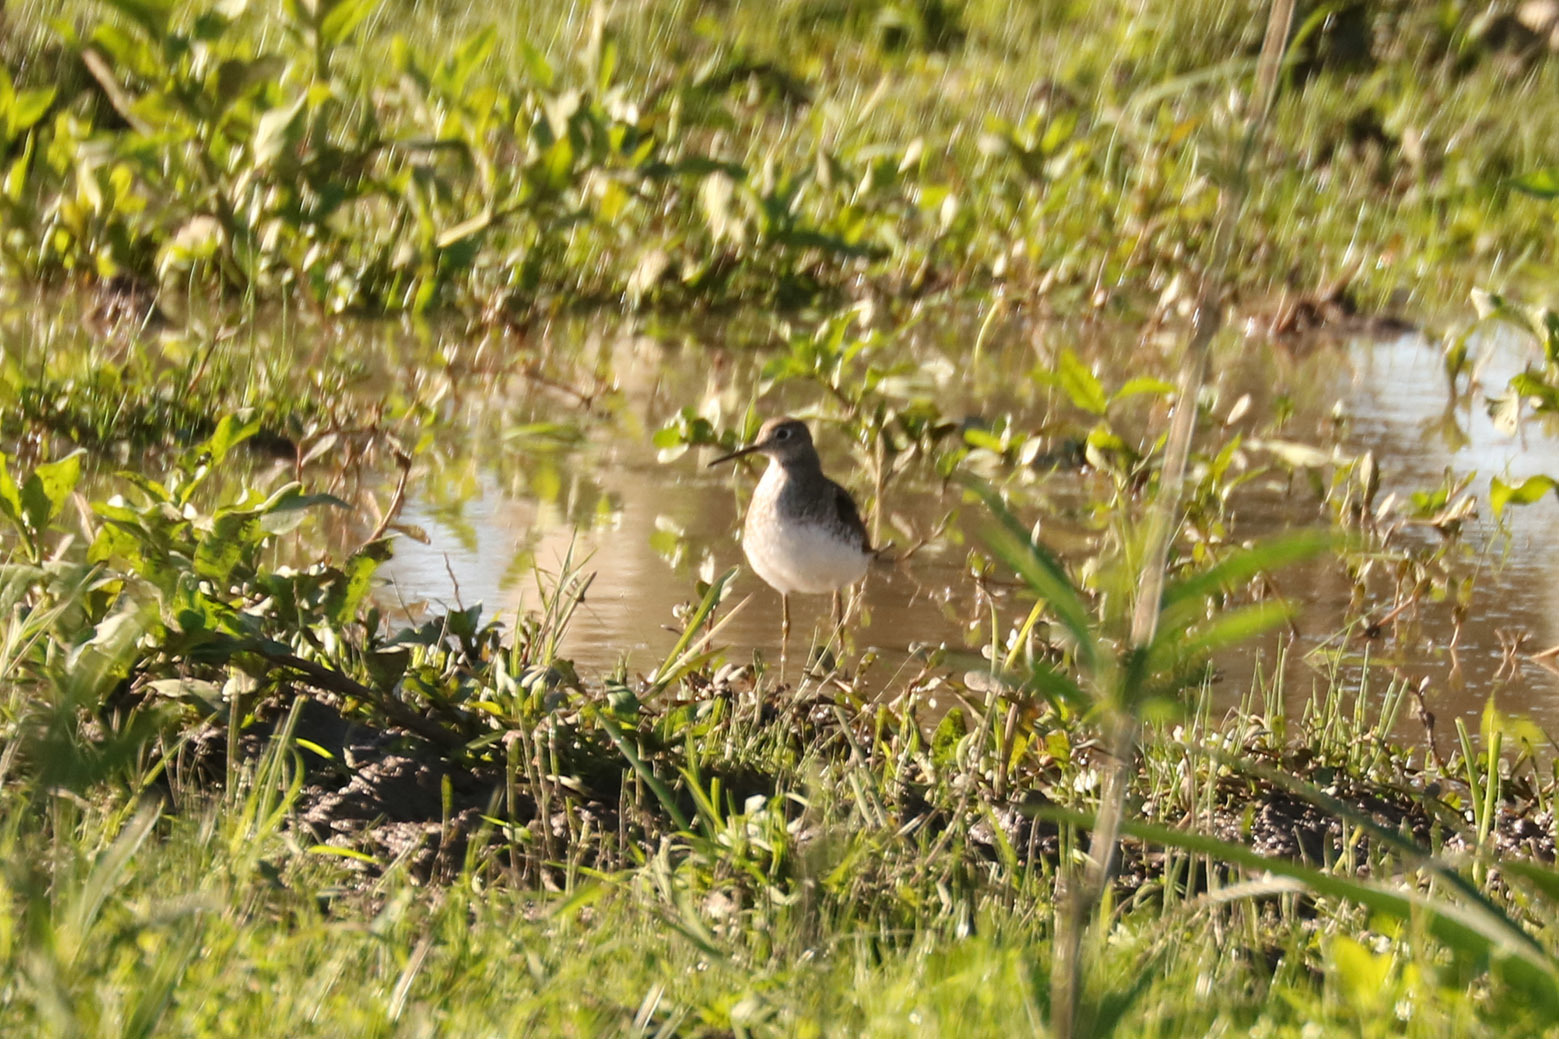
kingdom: Animalia
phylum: Chordata
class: Aves
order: Charadriiformes
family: Scolopacidae
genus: Tringa
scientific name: Tringa solitaria
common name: Solitary sandpiper
